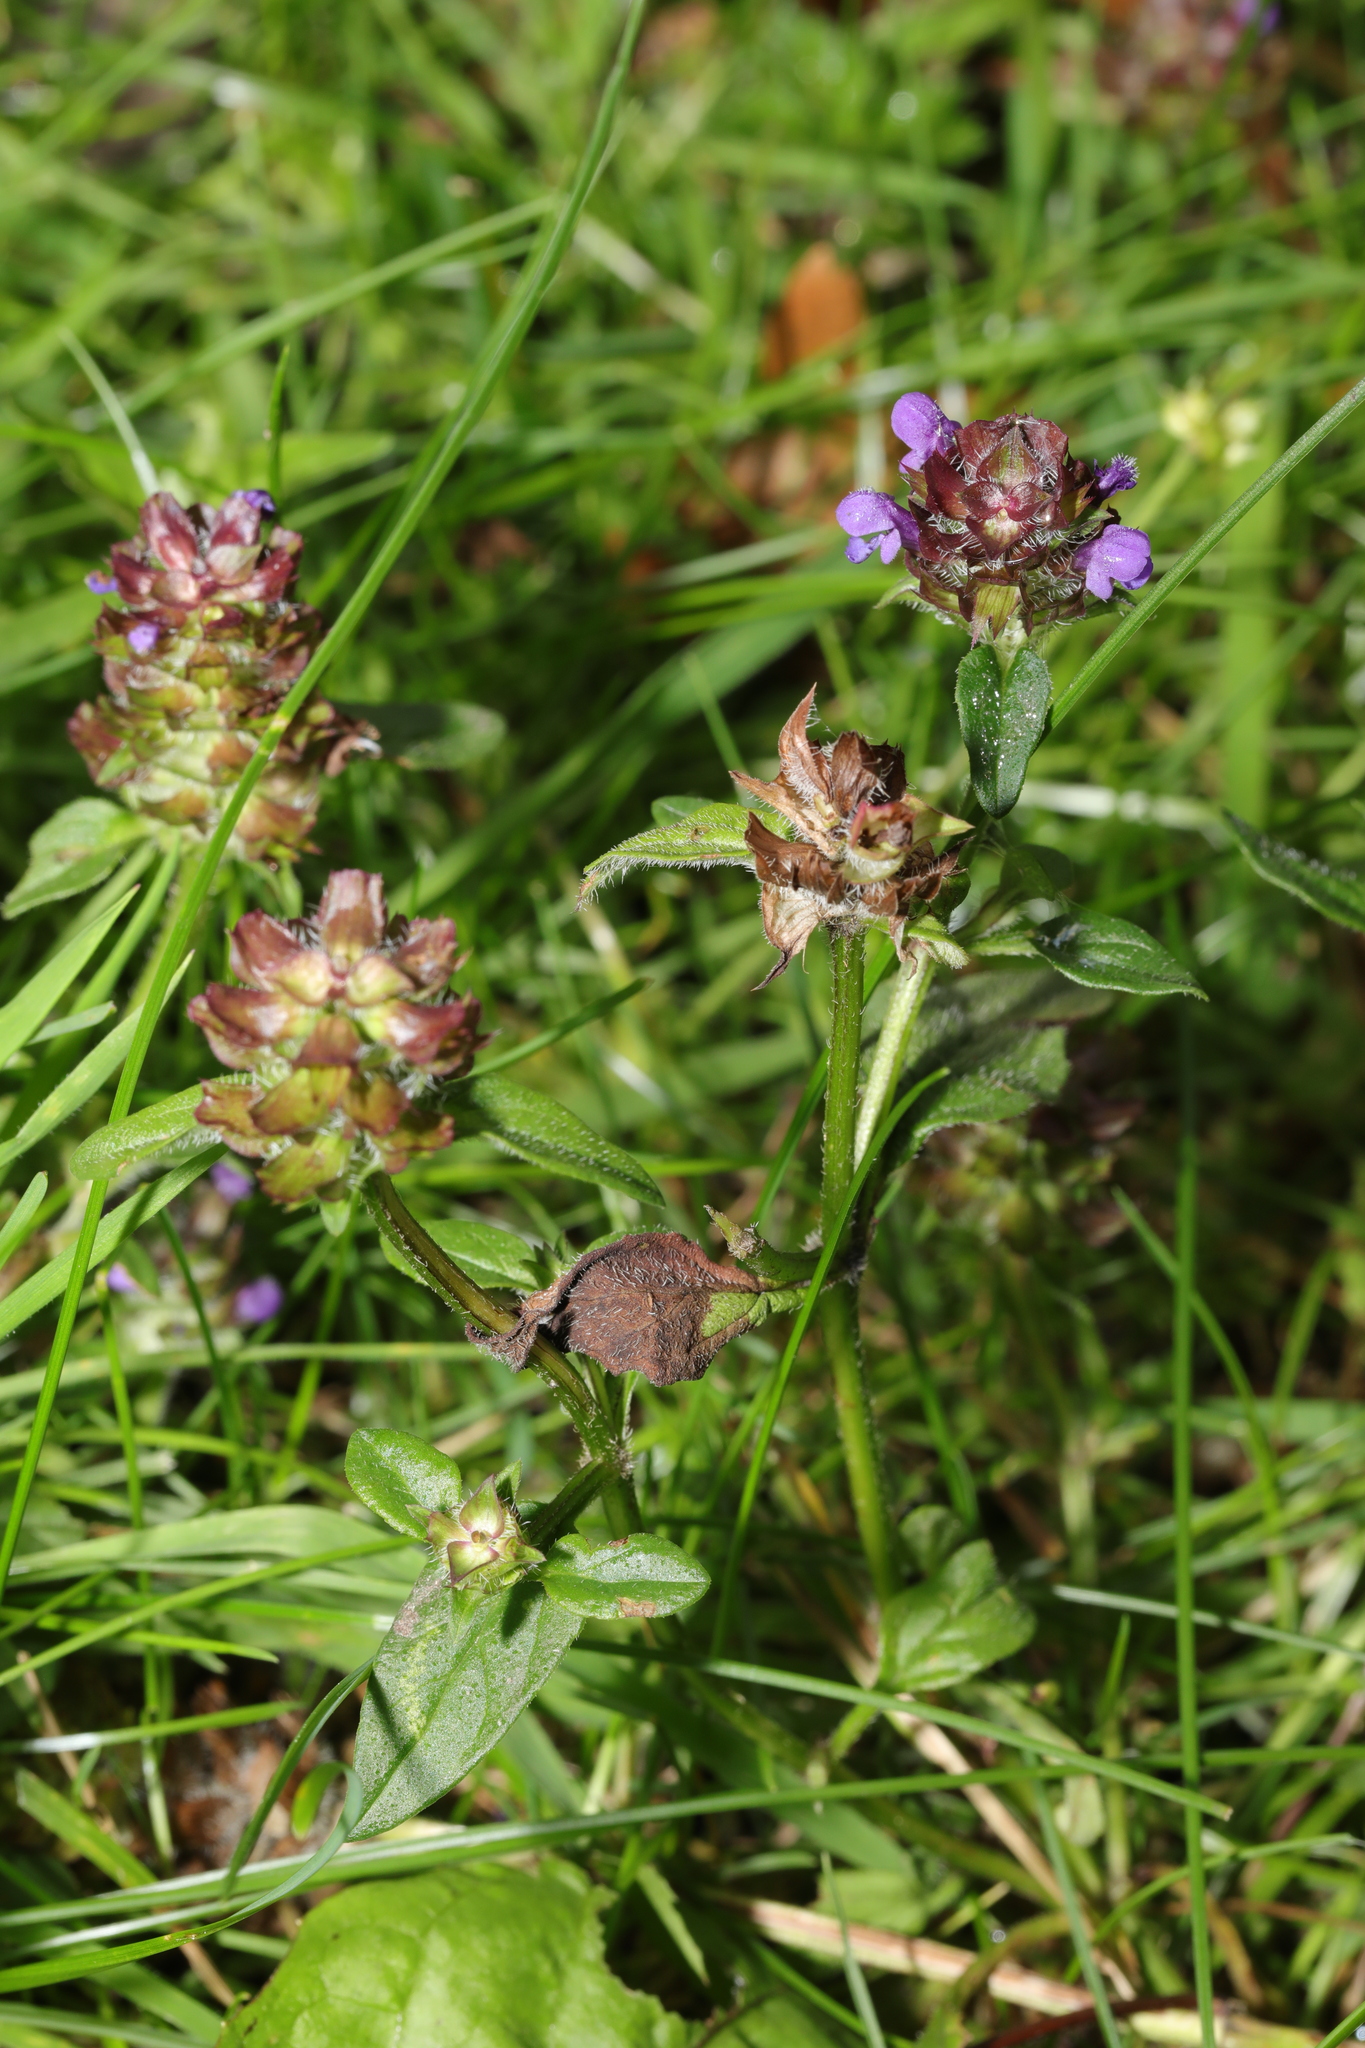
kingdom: Plantae
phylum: Tracheophyta
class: Magnoliopsida
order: Lamiales
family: Lamiaceae
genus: Prunella
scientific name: Prunella vulgaris
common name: Heal-all
